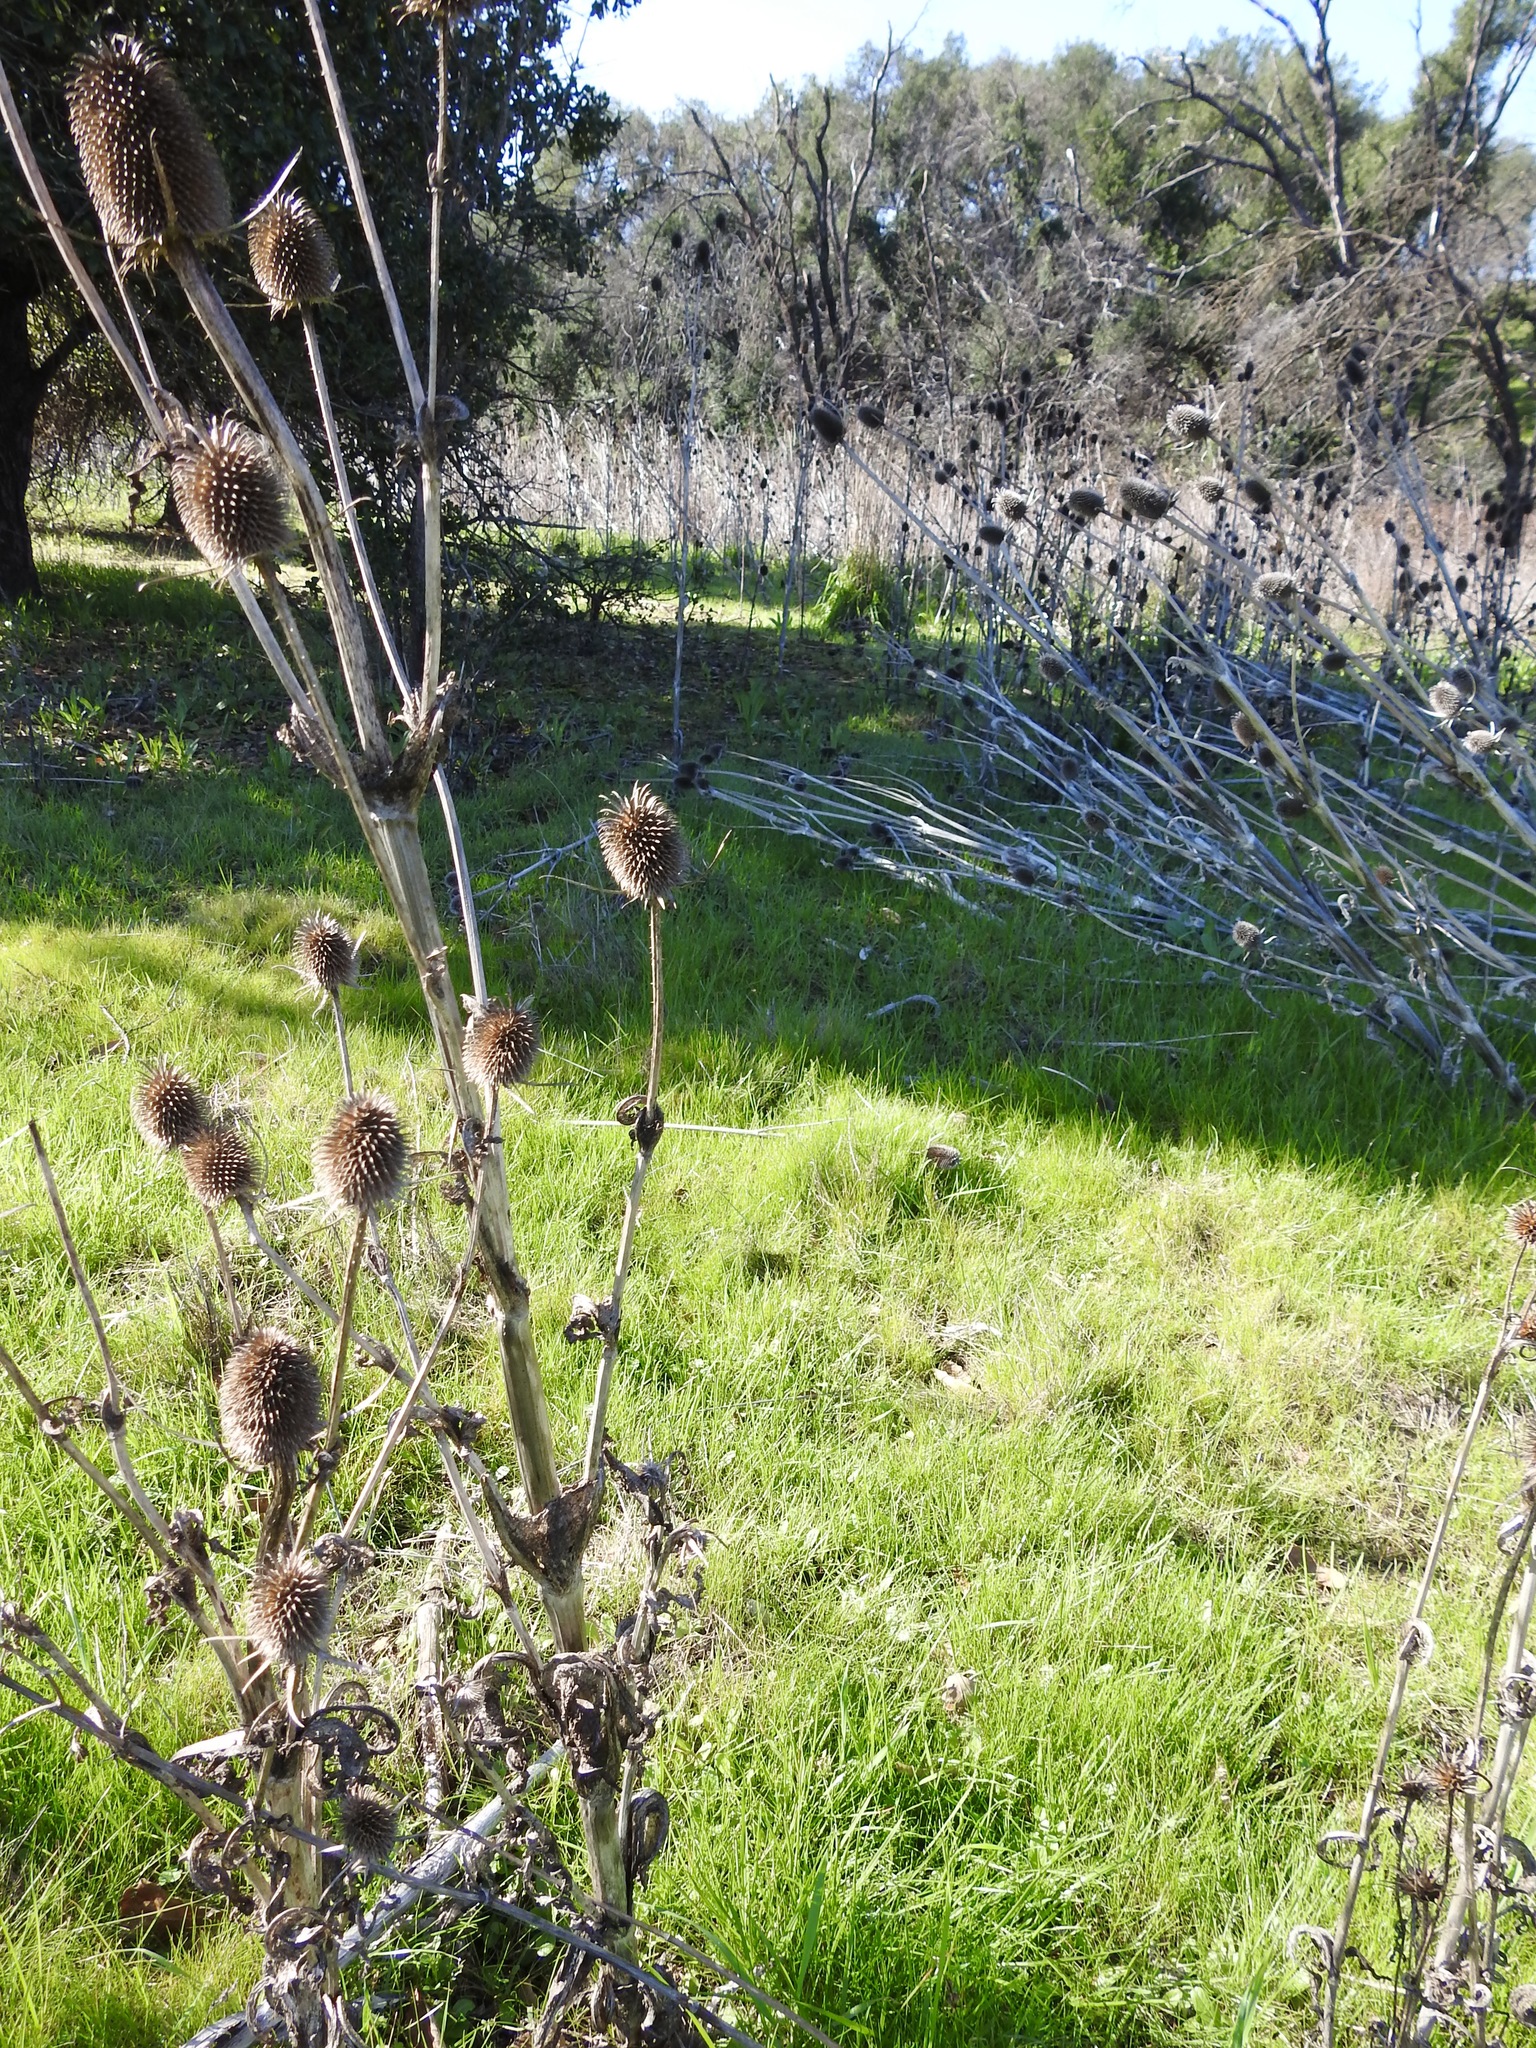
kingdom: Plantae
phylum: Tracheophyta
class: Magnoliopsida
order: Dipsacales
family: Caprifoliaceae
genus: Dipsacus
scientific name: Dipsacus sativus
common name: Fuller's teasel
